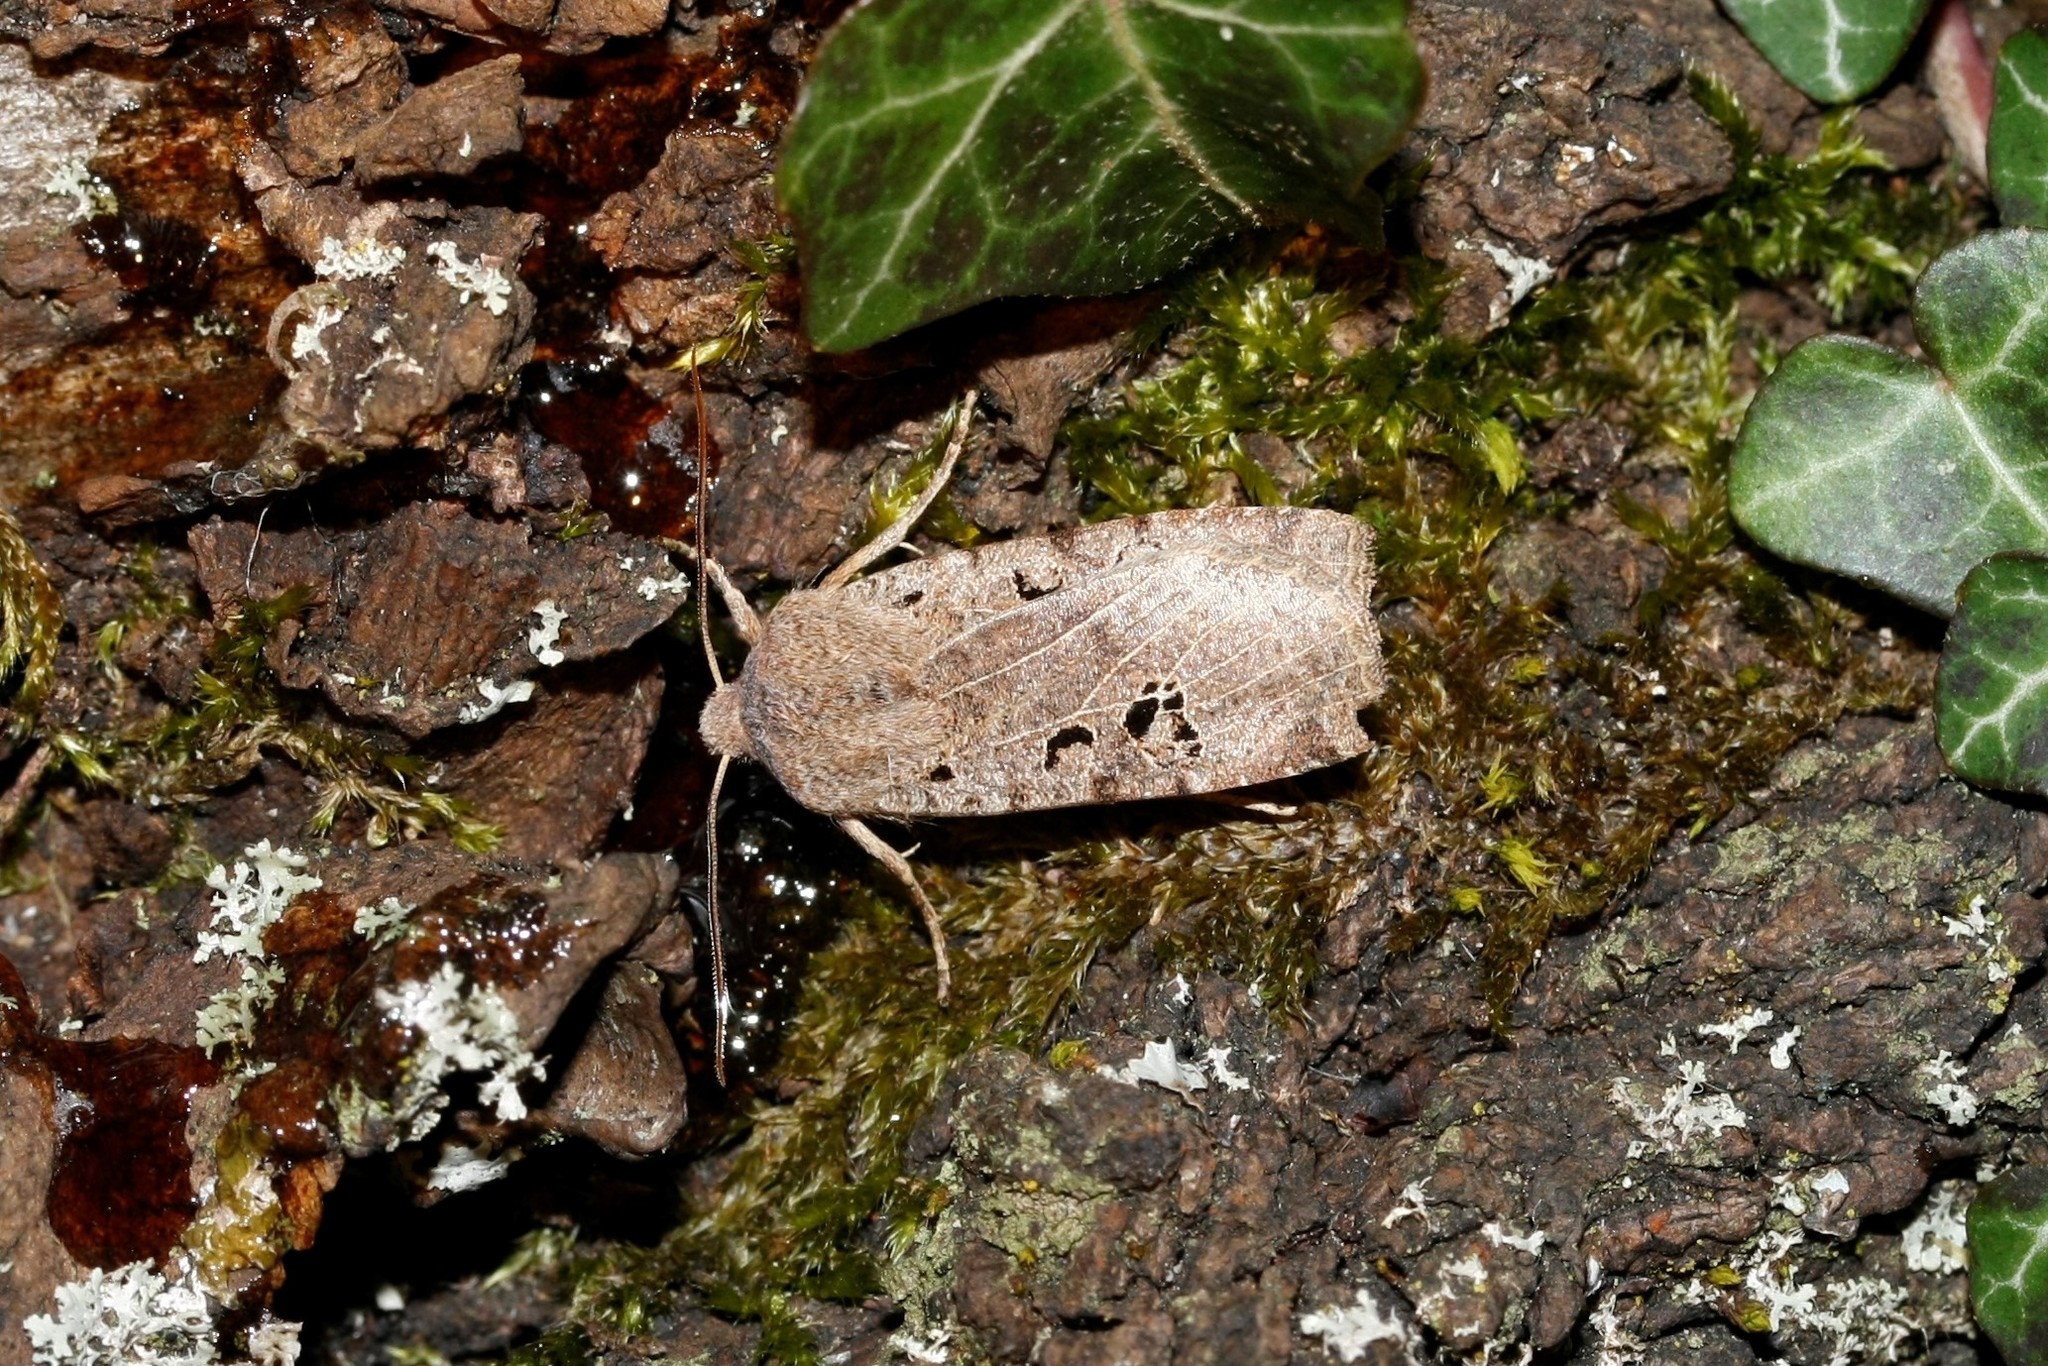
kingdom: Animalia
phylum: Arthropoda
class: Insecta
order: Lepidoptera
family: Noctuidae
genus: Conistra
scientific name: Conistra rubiginosa
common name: Black-spotted chestnut
